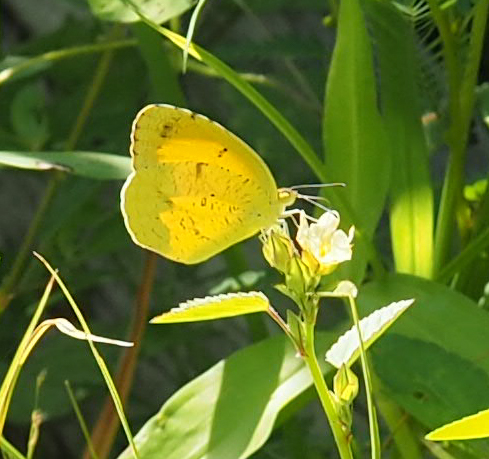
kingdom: Animalia
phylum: Arthropoda
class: Insecta
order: Lepidoptera
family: Pieridae
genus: Abaeis
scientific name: Abaeis nicippe
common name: Sleepy orange
